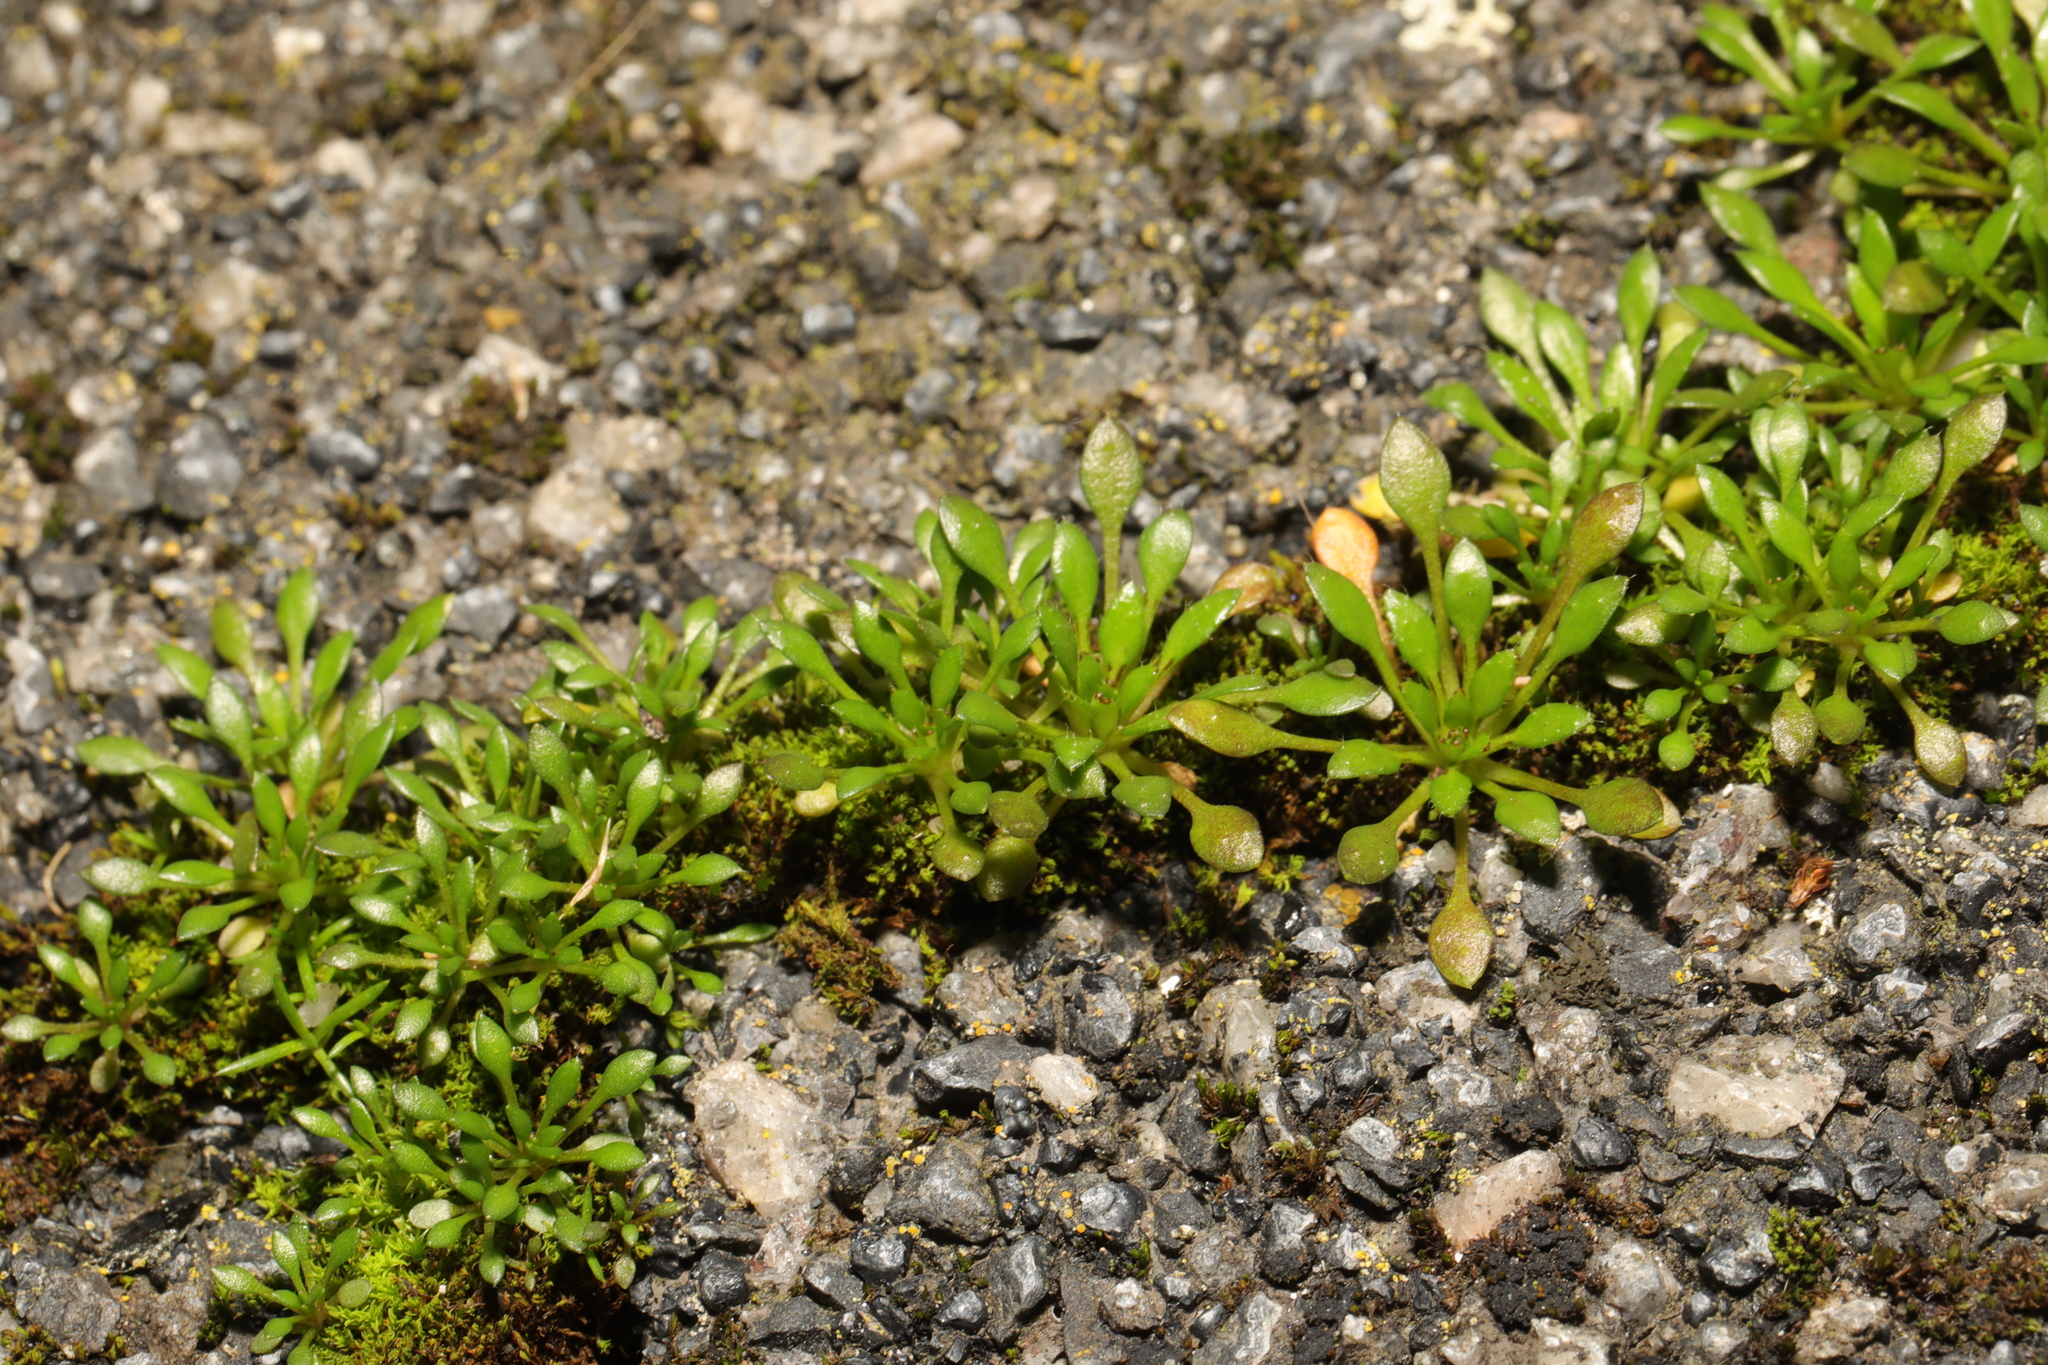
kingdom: Plantae
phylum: Tracheophyta
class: Magnoliopsida
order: Brassicales
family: Brassicaceae
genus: Draba
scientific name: Draba verna
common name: Spring draba
